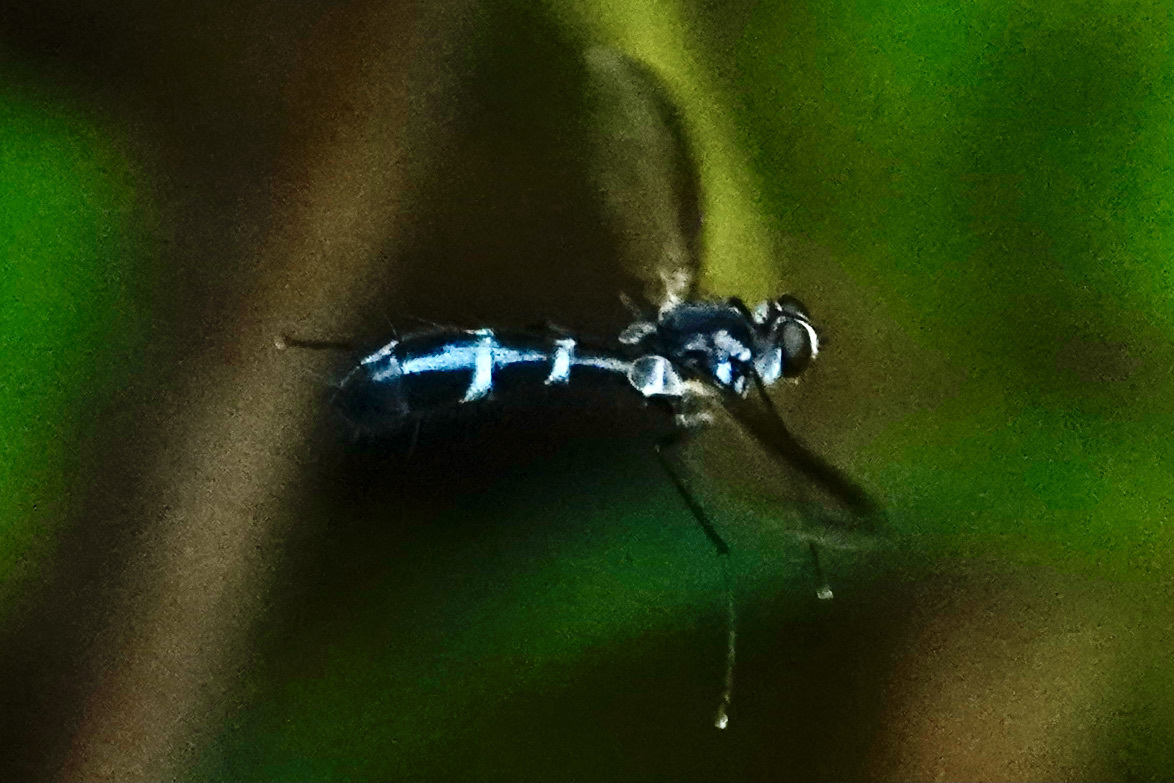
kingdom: Animalia
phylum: Arthropoda
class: Insecta
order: Diptera
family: Tachinidae
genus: Cordyligaster
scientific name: Cordyligaster septentrionalis
